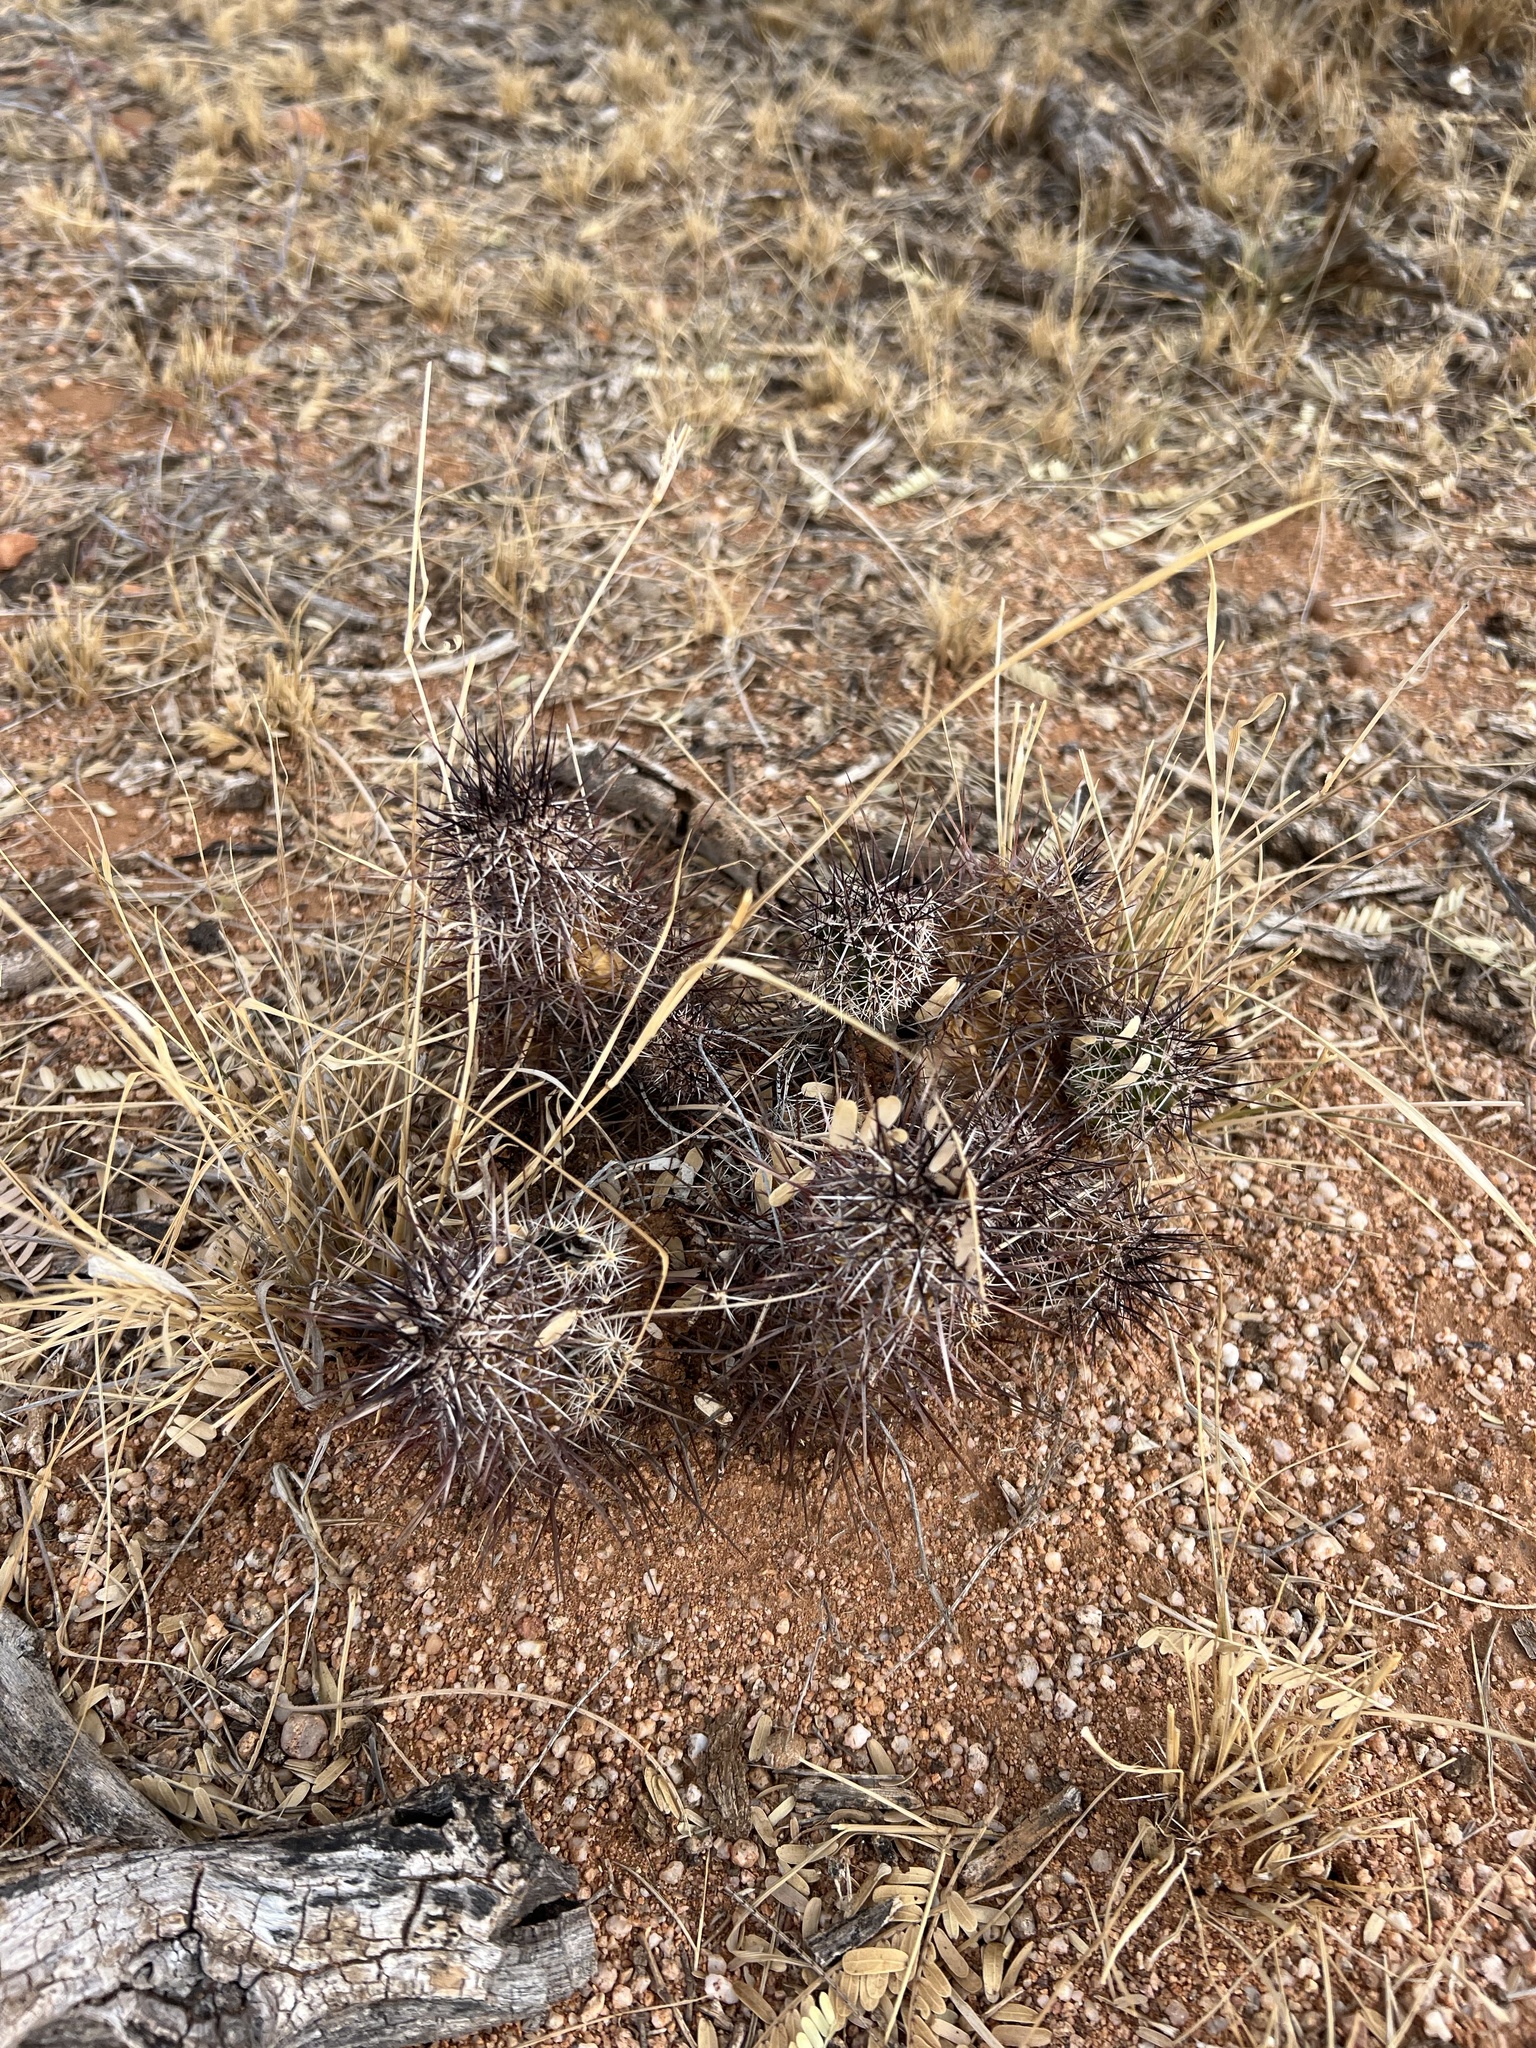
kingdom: Plantae
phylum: Tracheophyta
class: Magnoliopsida
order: Caryophyllales
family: Cactaceae
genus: Echinocereus
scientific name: Echinocereus fasciculatus
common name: Bundle hedgehog
